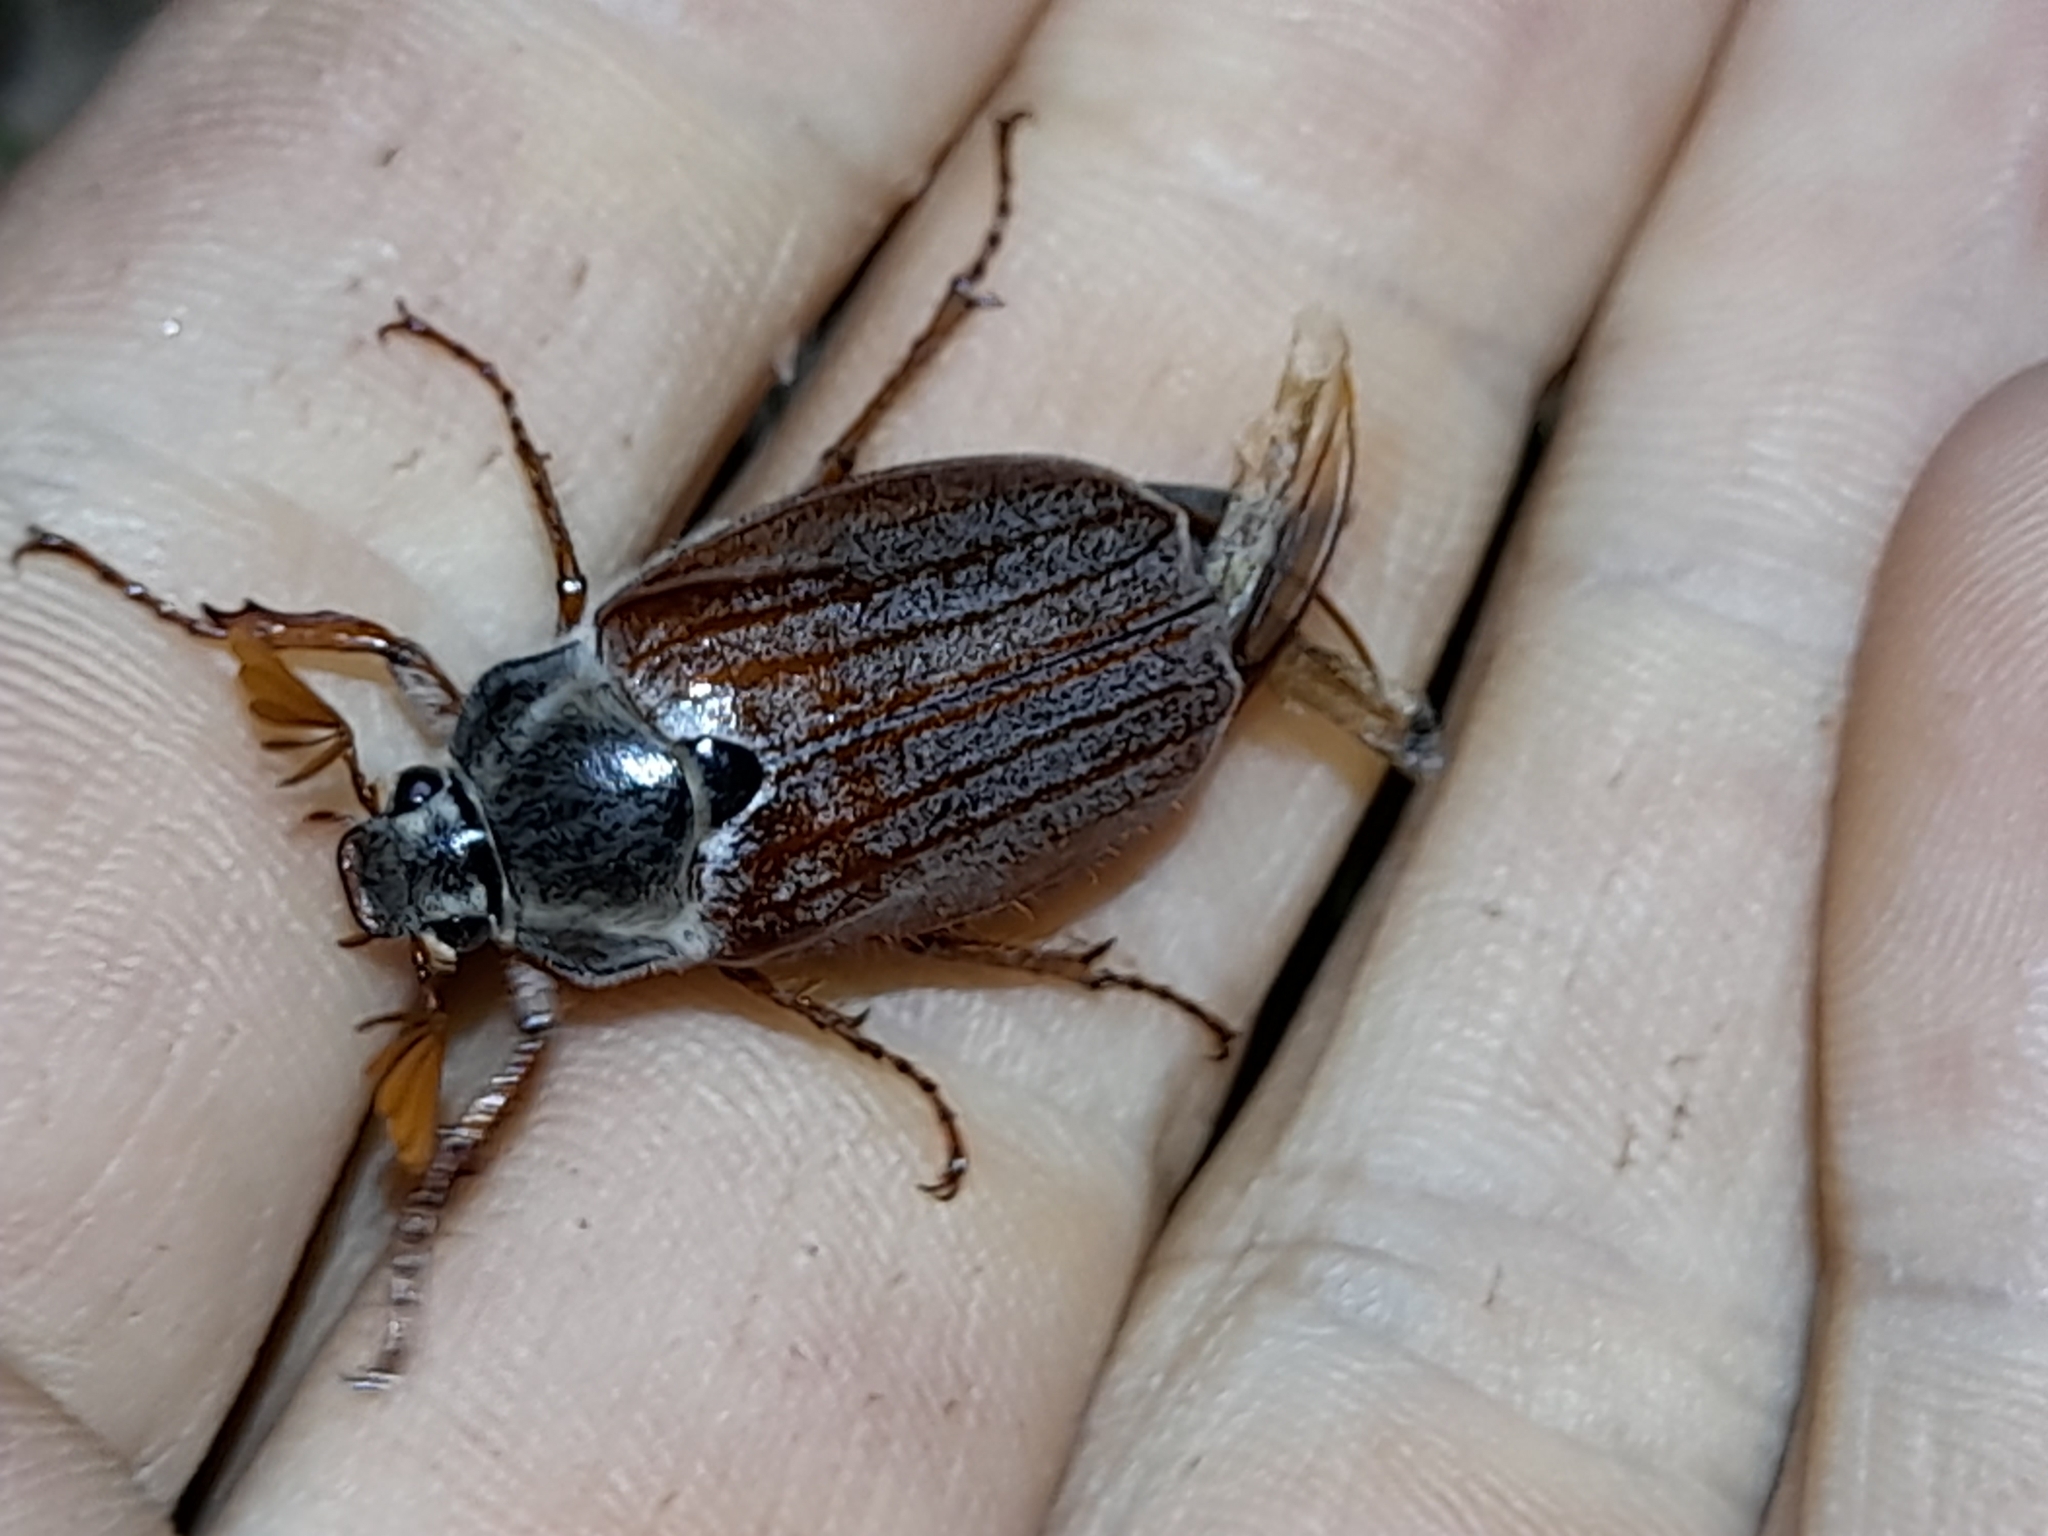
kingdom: Animalia
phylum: Arthropoda
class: Insecta
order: Coleoptera
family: Scarabaeidae
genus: Melolontha
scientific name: Melolontha melolontha
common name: Cockchafer maybeetle
